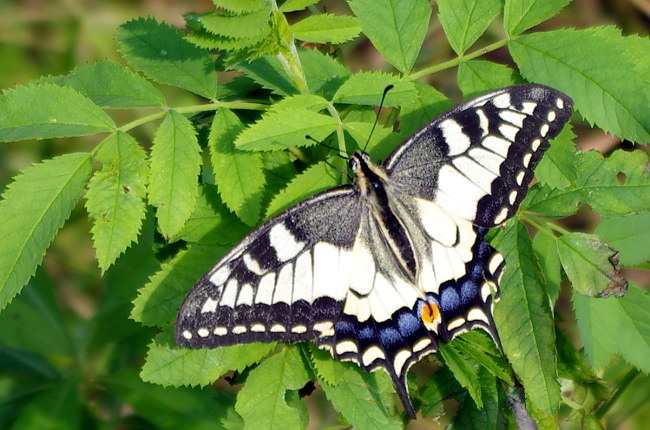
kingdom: Animalia
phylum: Arthropoda
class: Insecta
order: Lepidoptera
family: Papilionidae
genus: Papilio
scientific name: Papilio machaon
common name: Swallowtail
